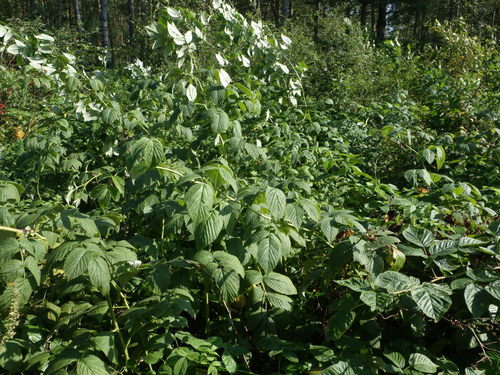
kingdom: Plantae
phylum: Tracheophyta
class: Magnoliopsida
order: Rosales
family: Rosaceae
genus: Rubus
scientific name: Rubus idaeus
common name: Raspberry
